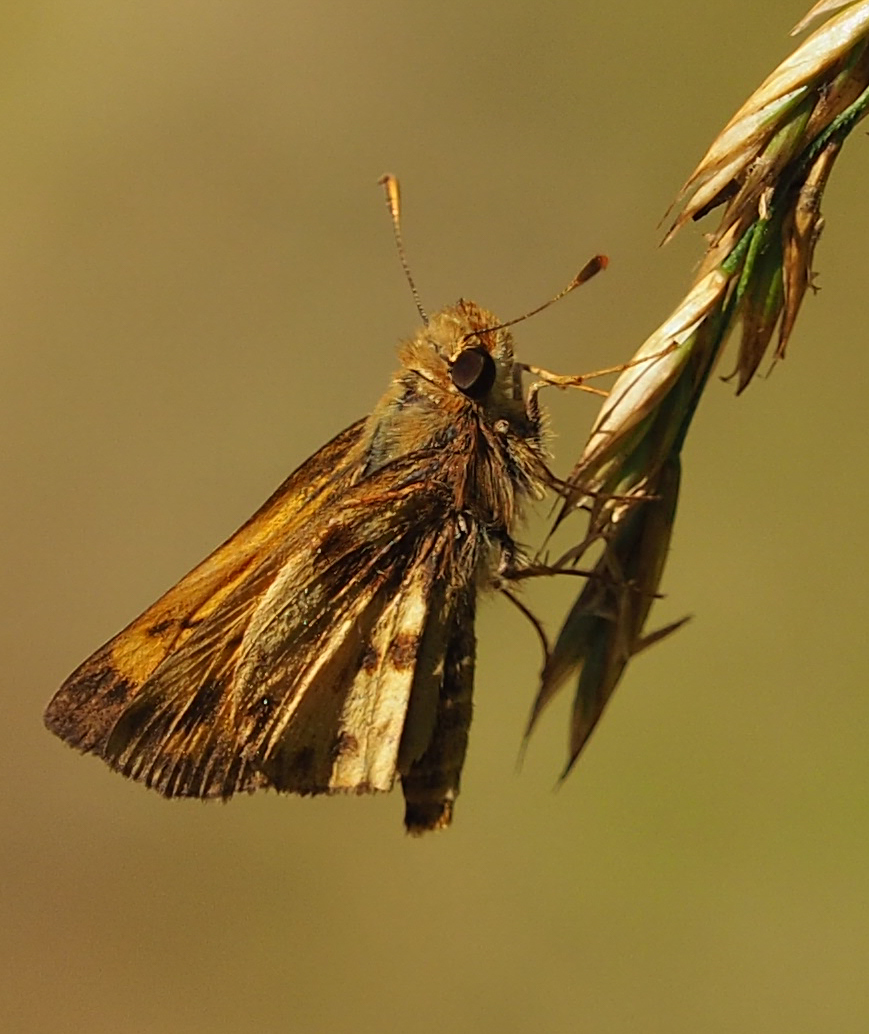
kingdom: Animalia
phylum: Arthropoda
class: Insecta
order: Lepidoptera
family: Hesperiidae
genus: Lon
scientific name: Lon zabulon
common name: Zabulon skipper
